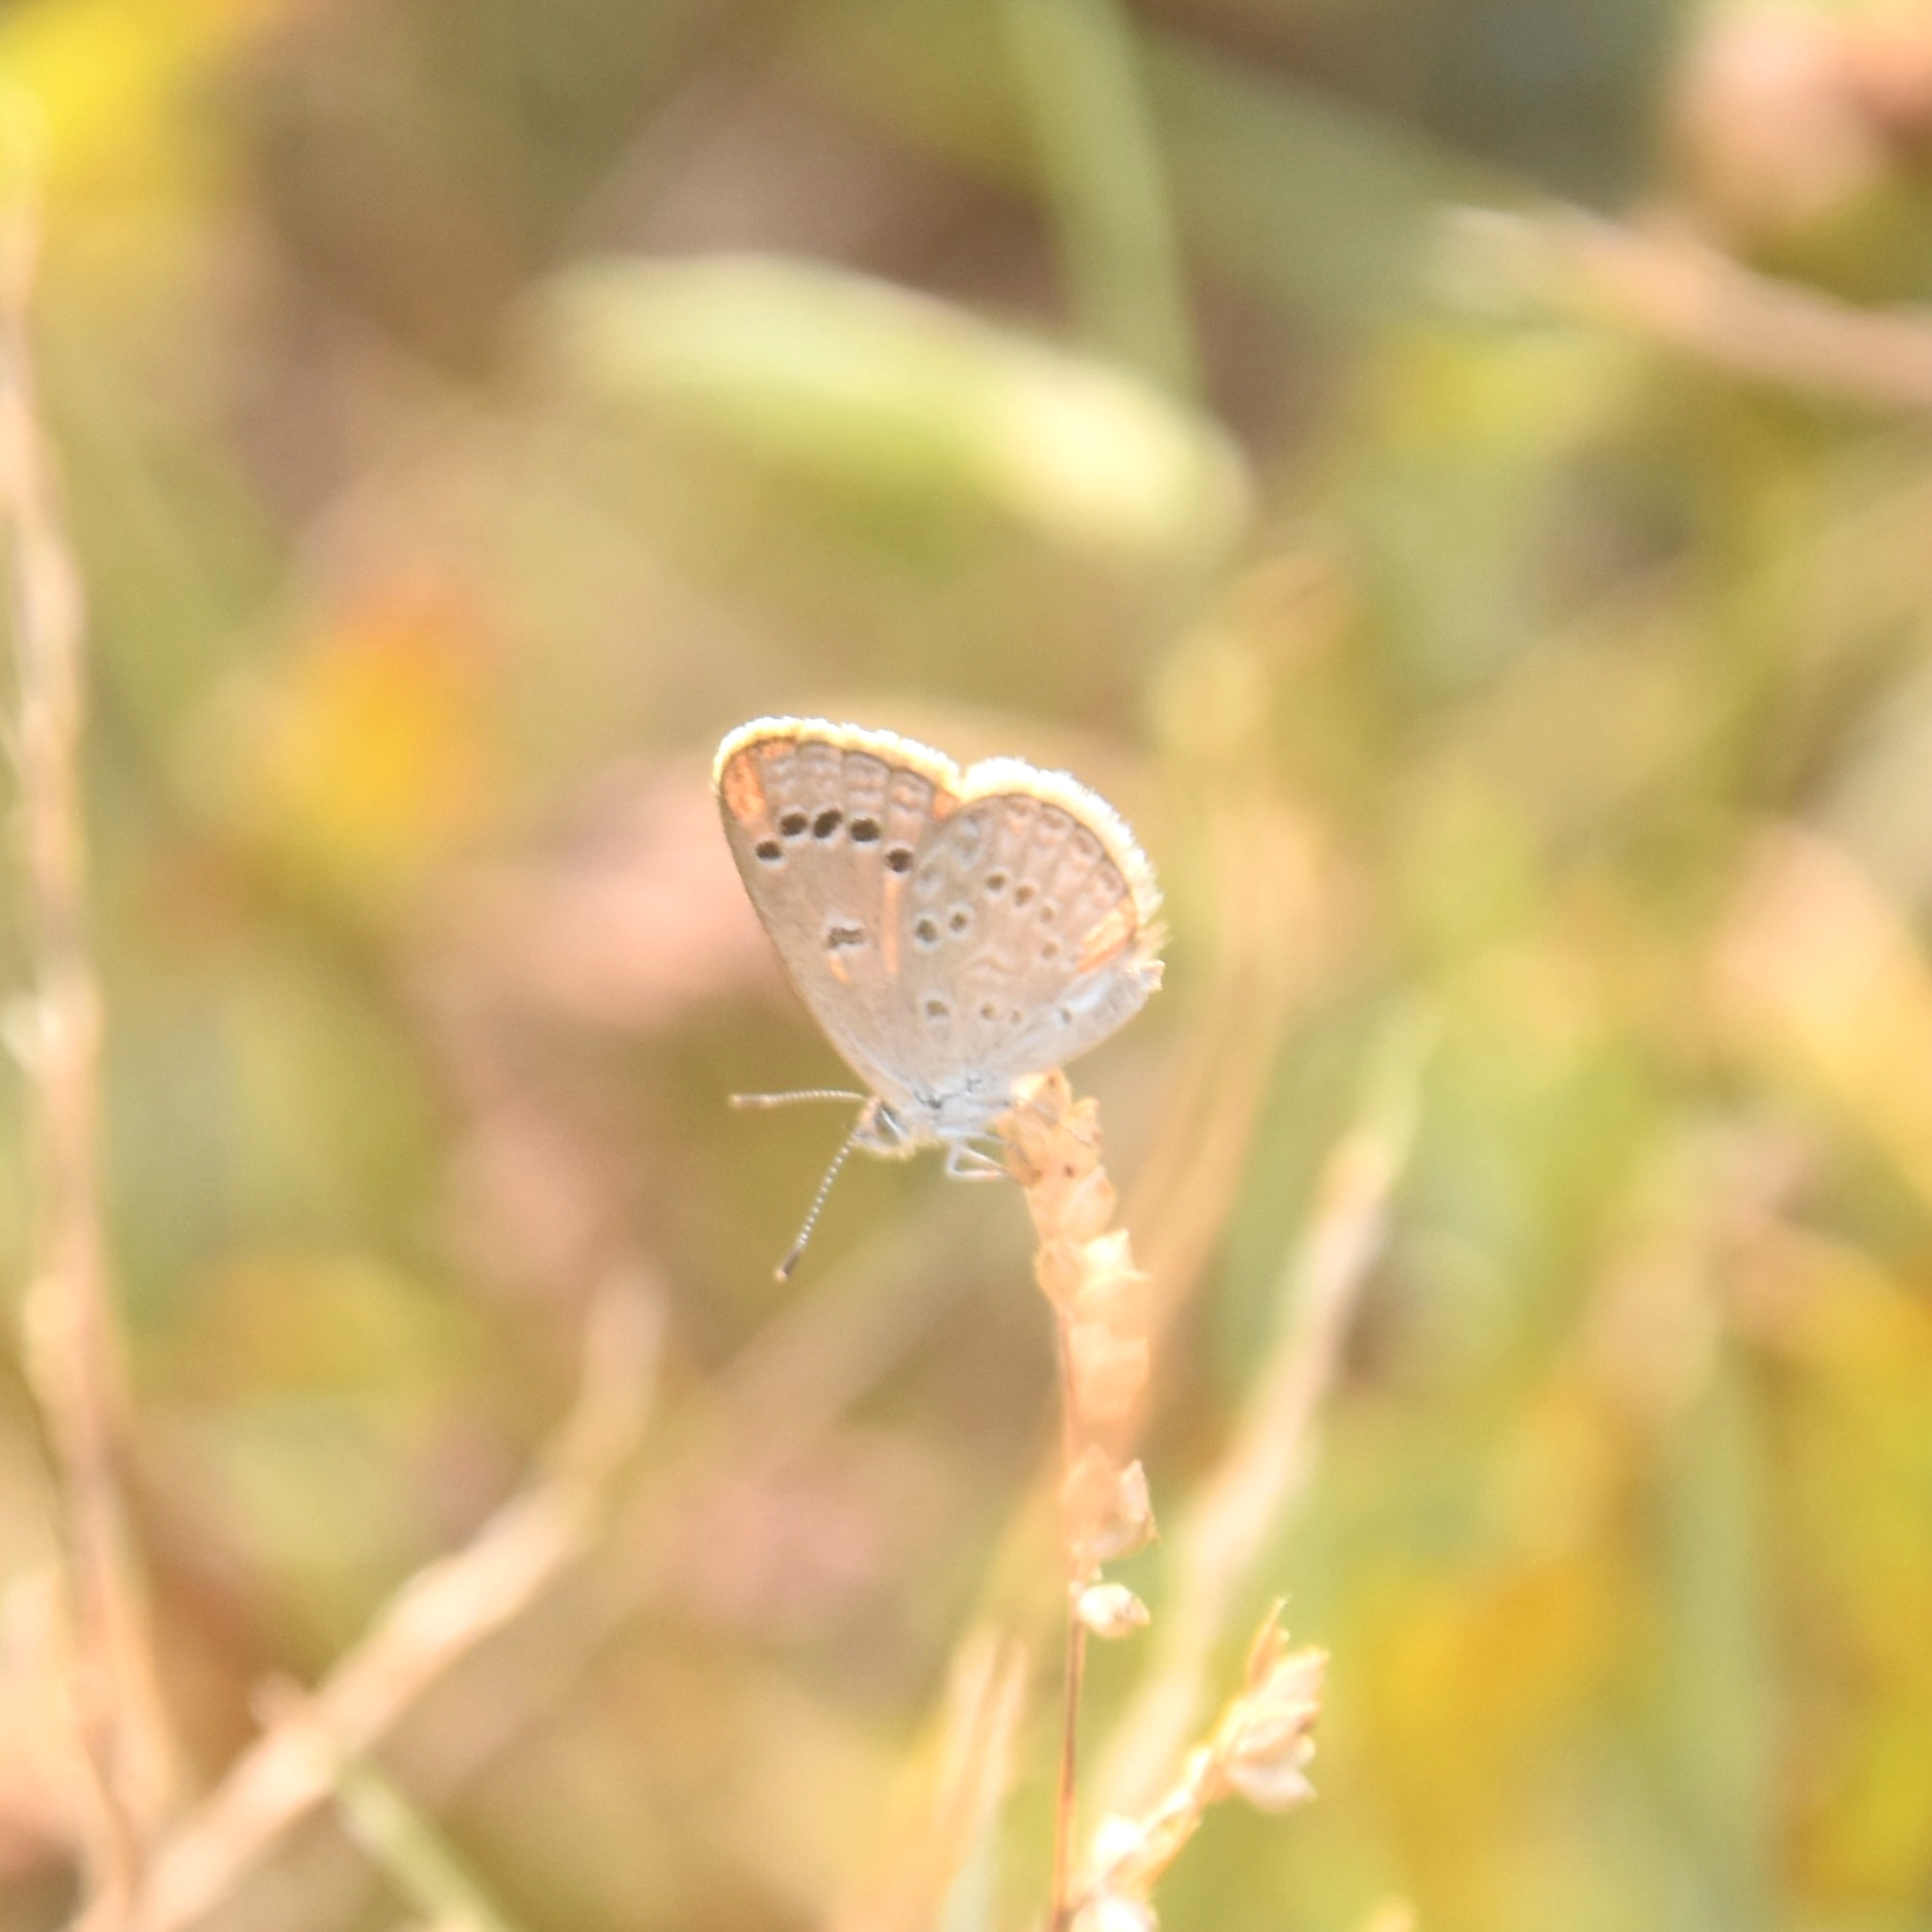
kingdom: Animalia
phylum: Arthropoda
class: Insecta
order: Lepidoptera
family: Lycaenidae
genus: Zizina
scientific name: Zizina otis
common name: Lesser grass blue
